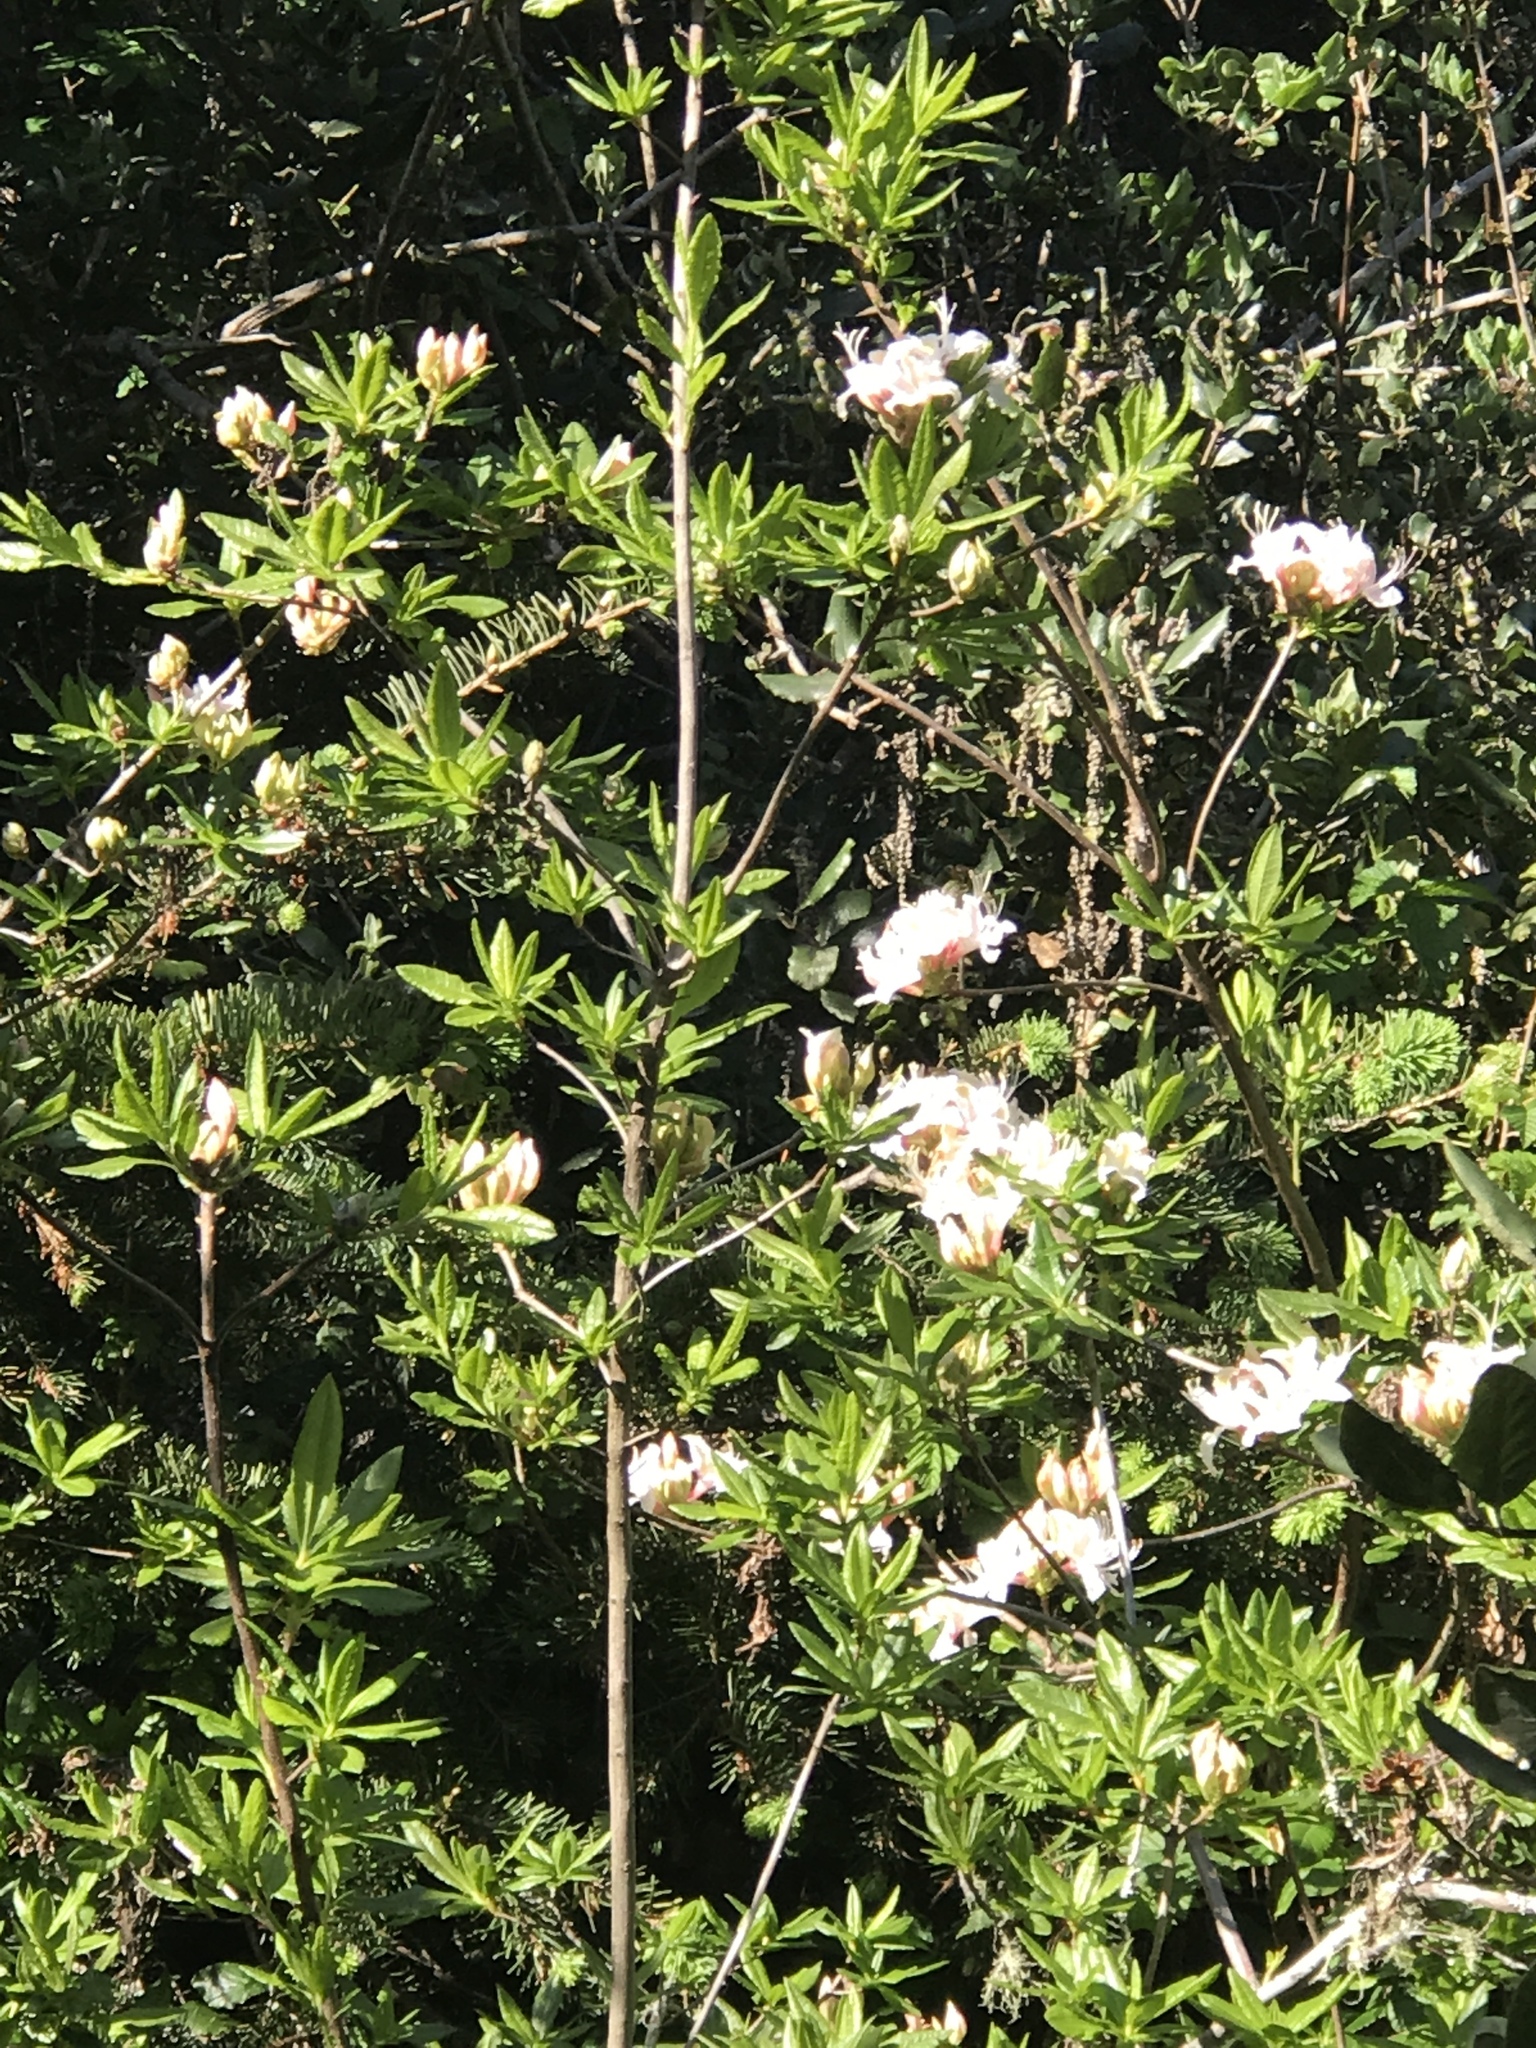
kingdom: Plantae
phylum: Tracheophyta
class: Magnoliopsida
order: Ericales
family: Ericaceae
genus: Rhododendron
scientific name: Rhododendron occidentale
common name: Western azalea
